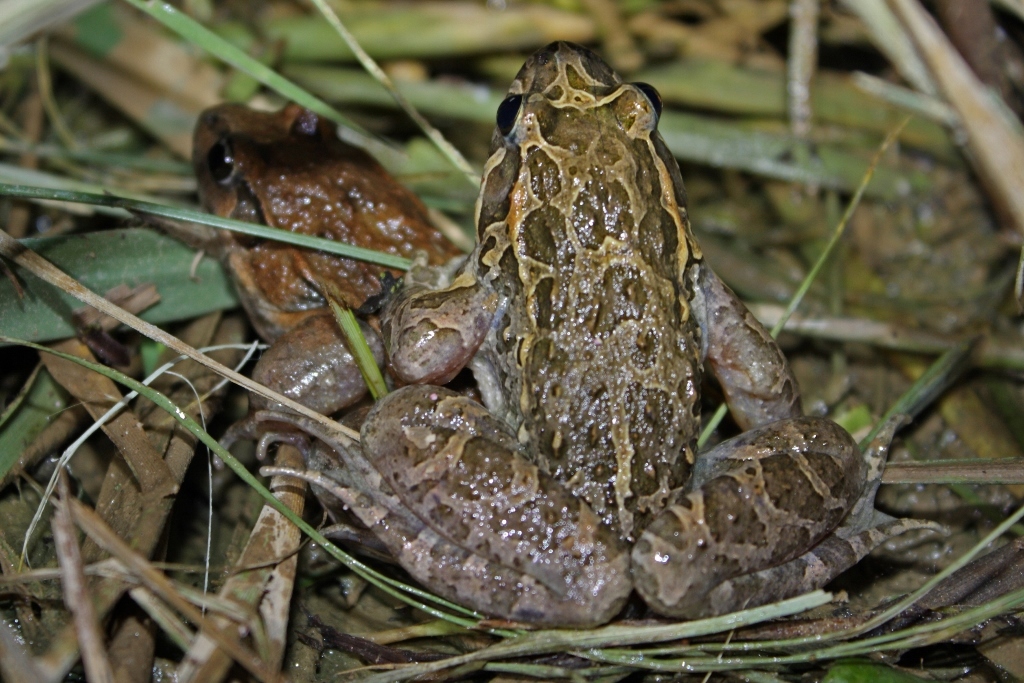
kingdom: Animalia
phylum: Chordata
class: Amphibia
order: Anura
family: Alytidae
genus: Discoglossus
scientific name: Discoglossus pictus
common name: Painted frog
